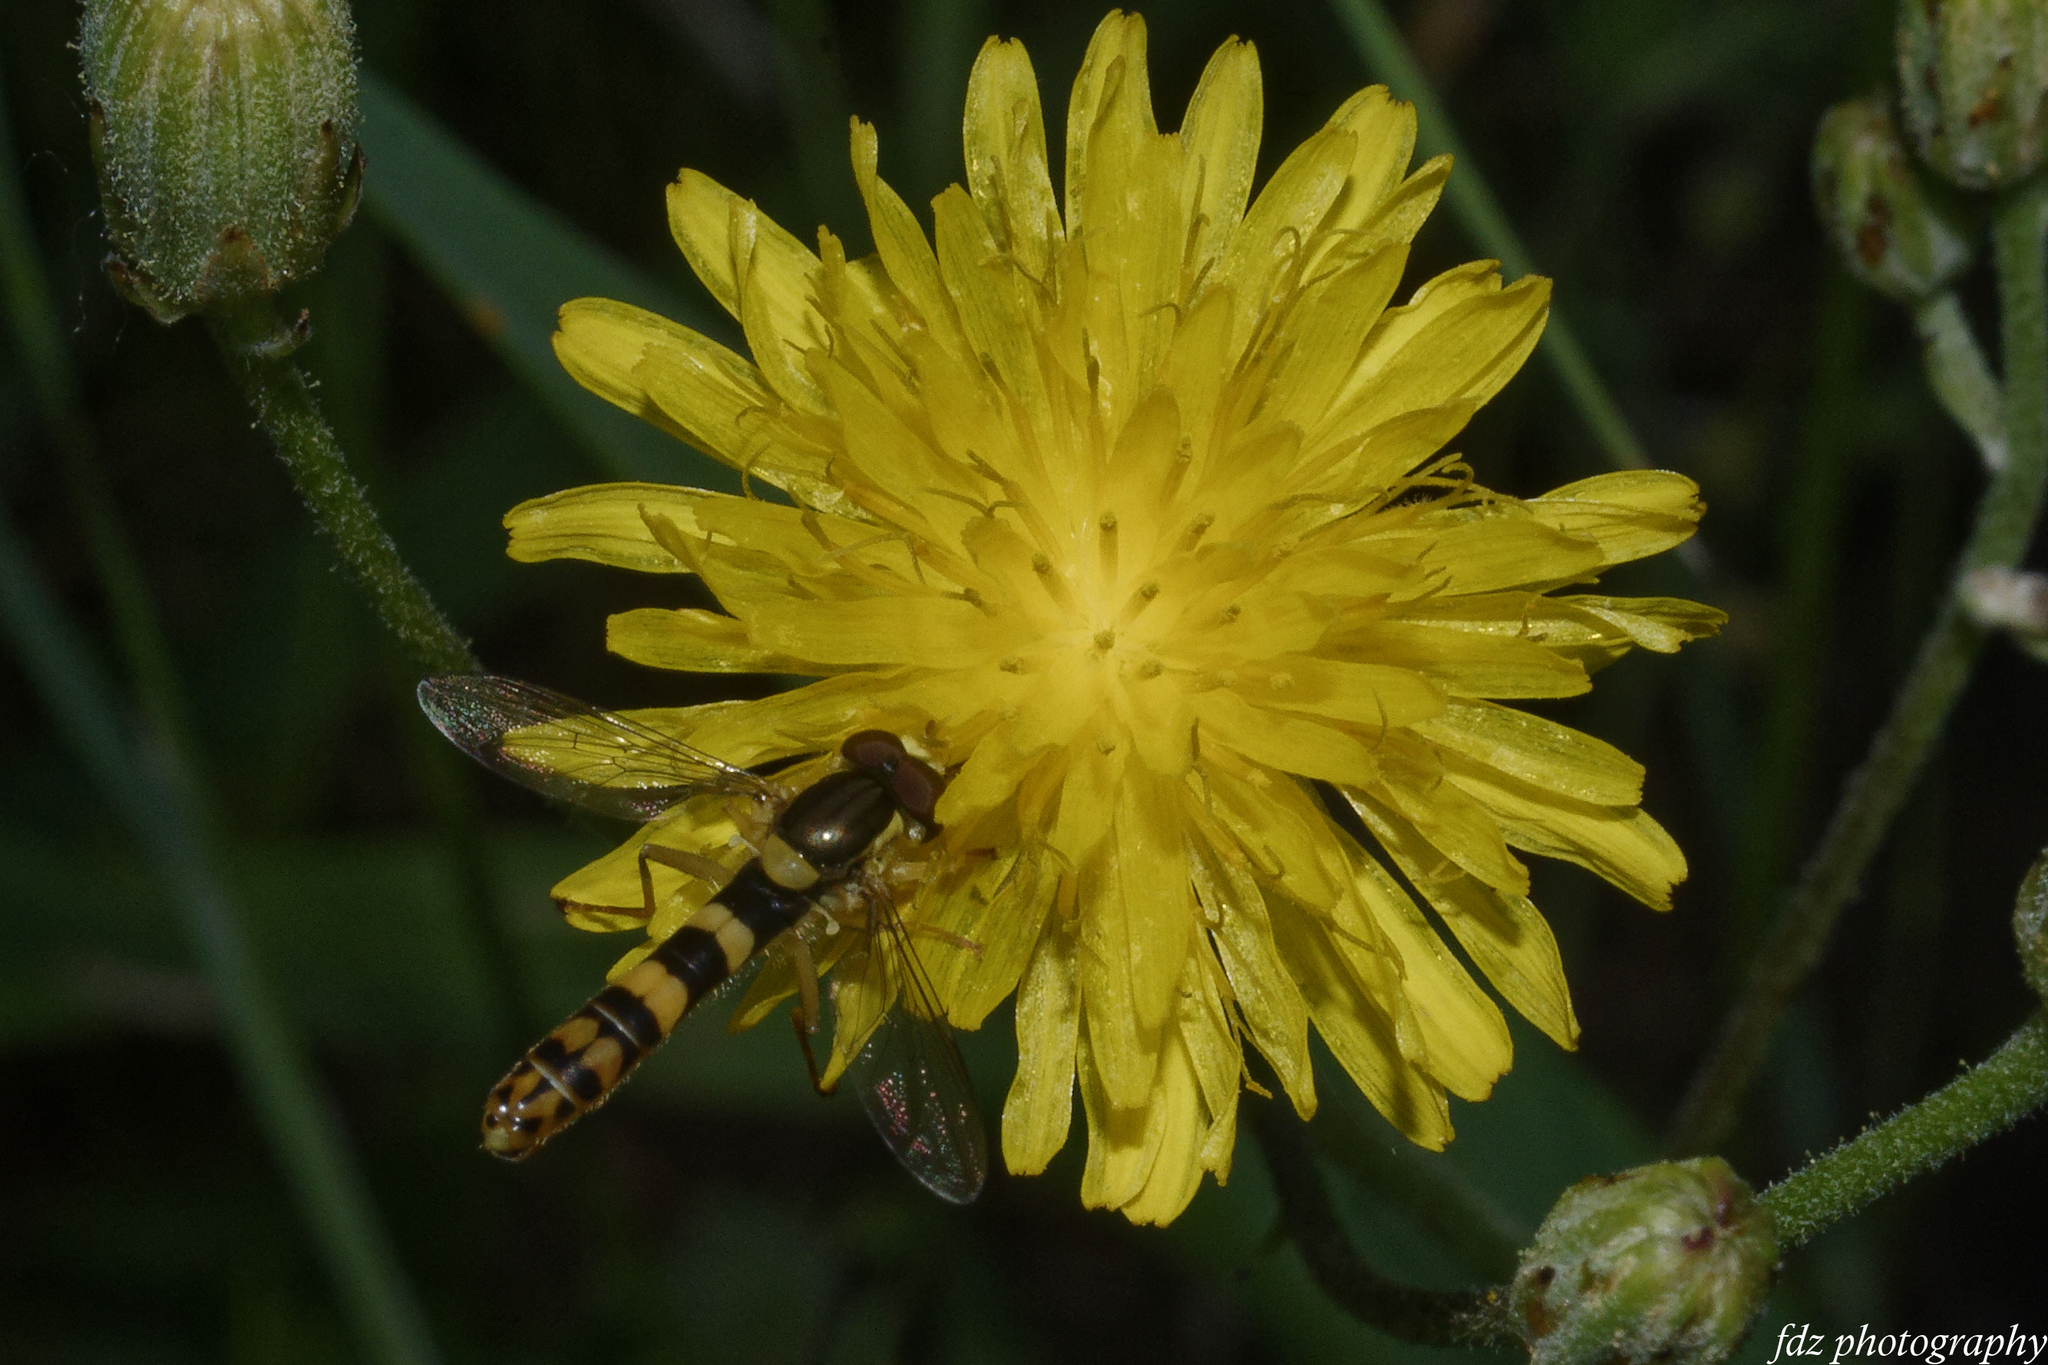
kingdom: Animalia
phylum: Arthropoda
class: Insecta
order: Diptera
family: Syrphidae
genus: Sphaerophoria
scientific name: Sphaerophoria scripta
